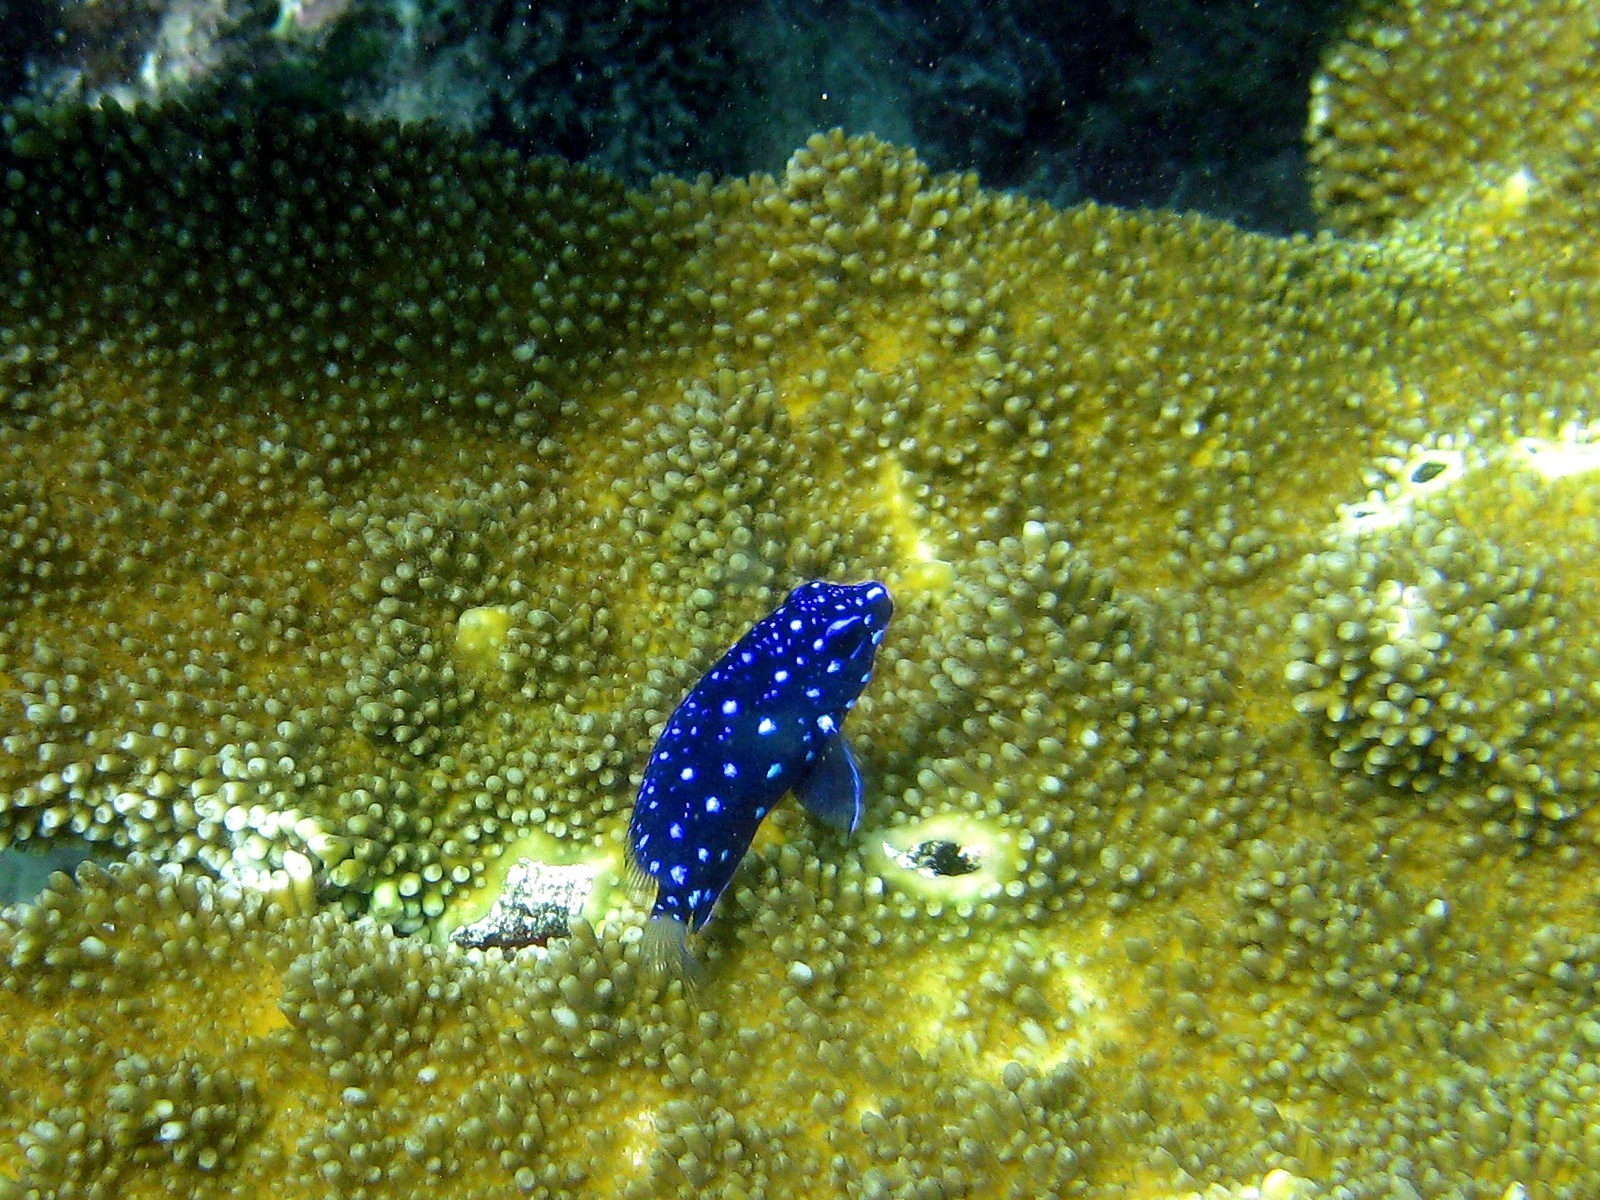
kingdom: Animalia
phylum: Chordata
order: Perciformes
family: Pomacentridae
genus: Microspathodon
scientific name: Microspathodon chrysurus
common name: Yellowtail damselfish
